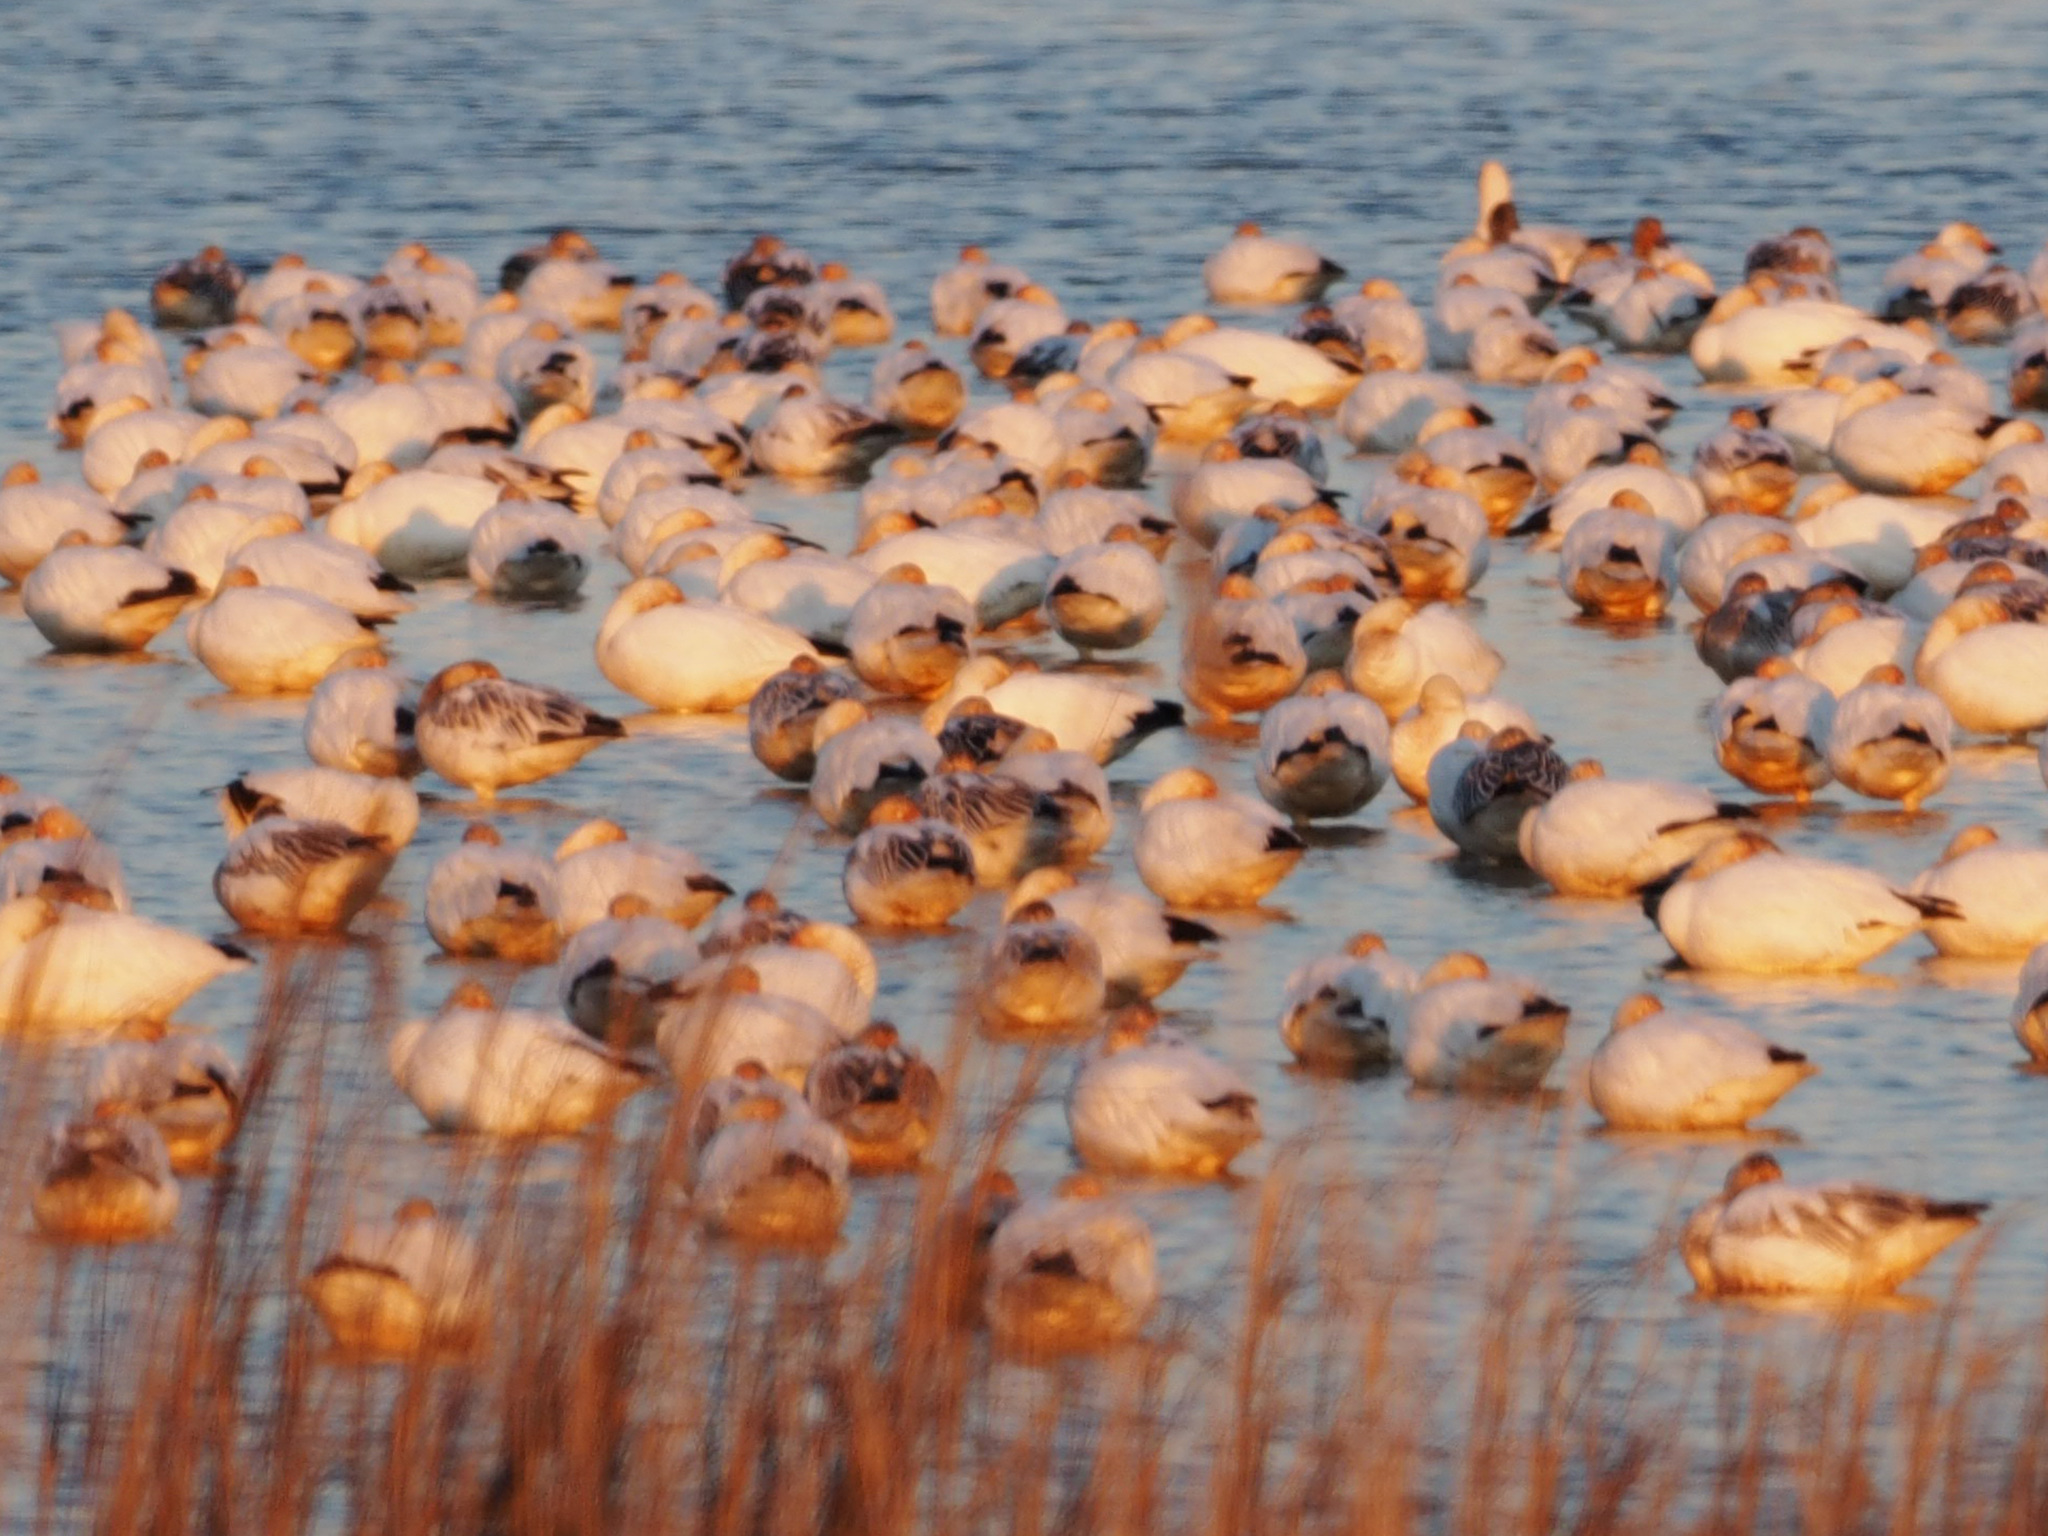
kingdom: Animalia
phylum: Chordata
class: Aves
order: Anseriformes
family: Anatidae
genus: Anser
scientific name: Anser caerulescens
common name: Snow goose
